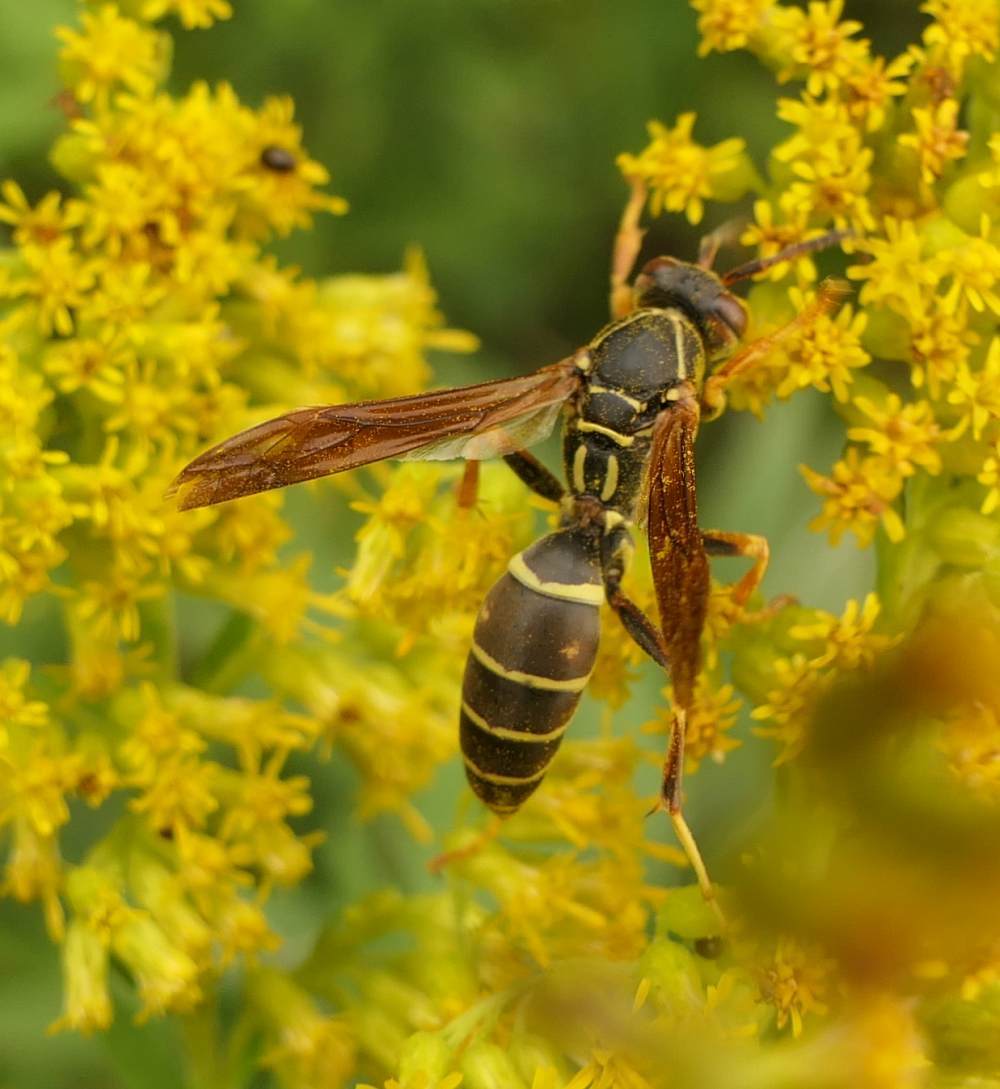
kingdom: Animalia
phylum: Arthropoda
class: Insecta
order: Hymenoptera
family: Eumenidae
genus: Polistes
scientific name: Polistes fuscatus
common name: Dark paper wasp
